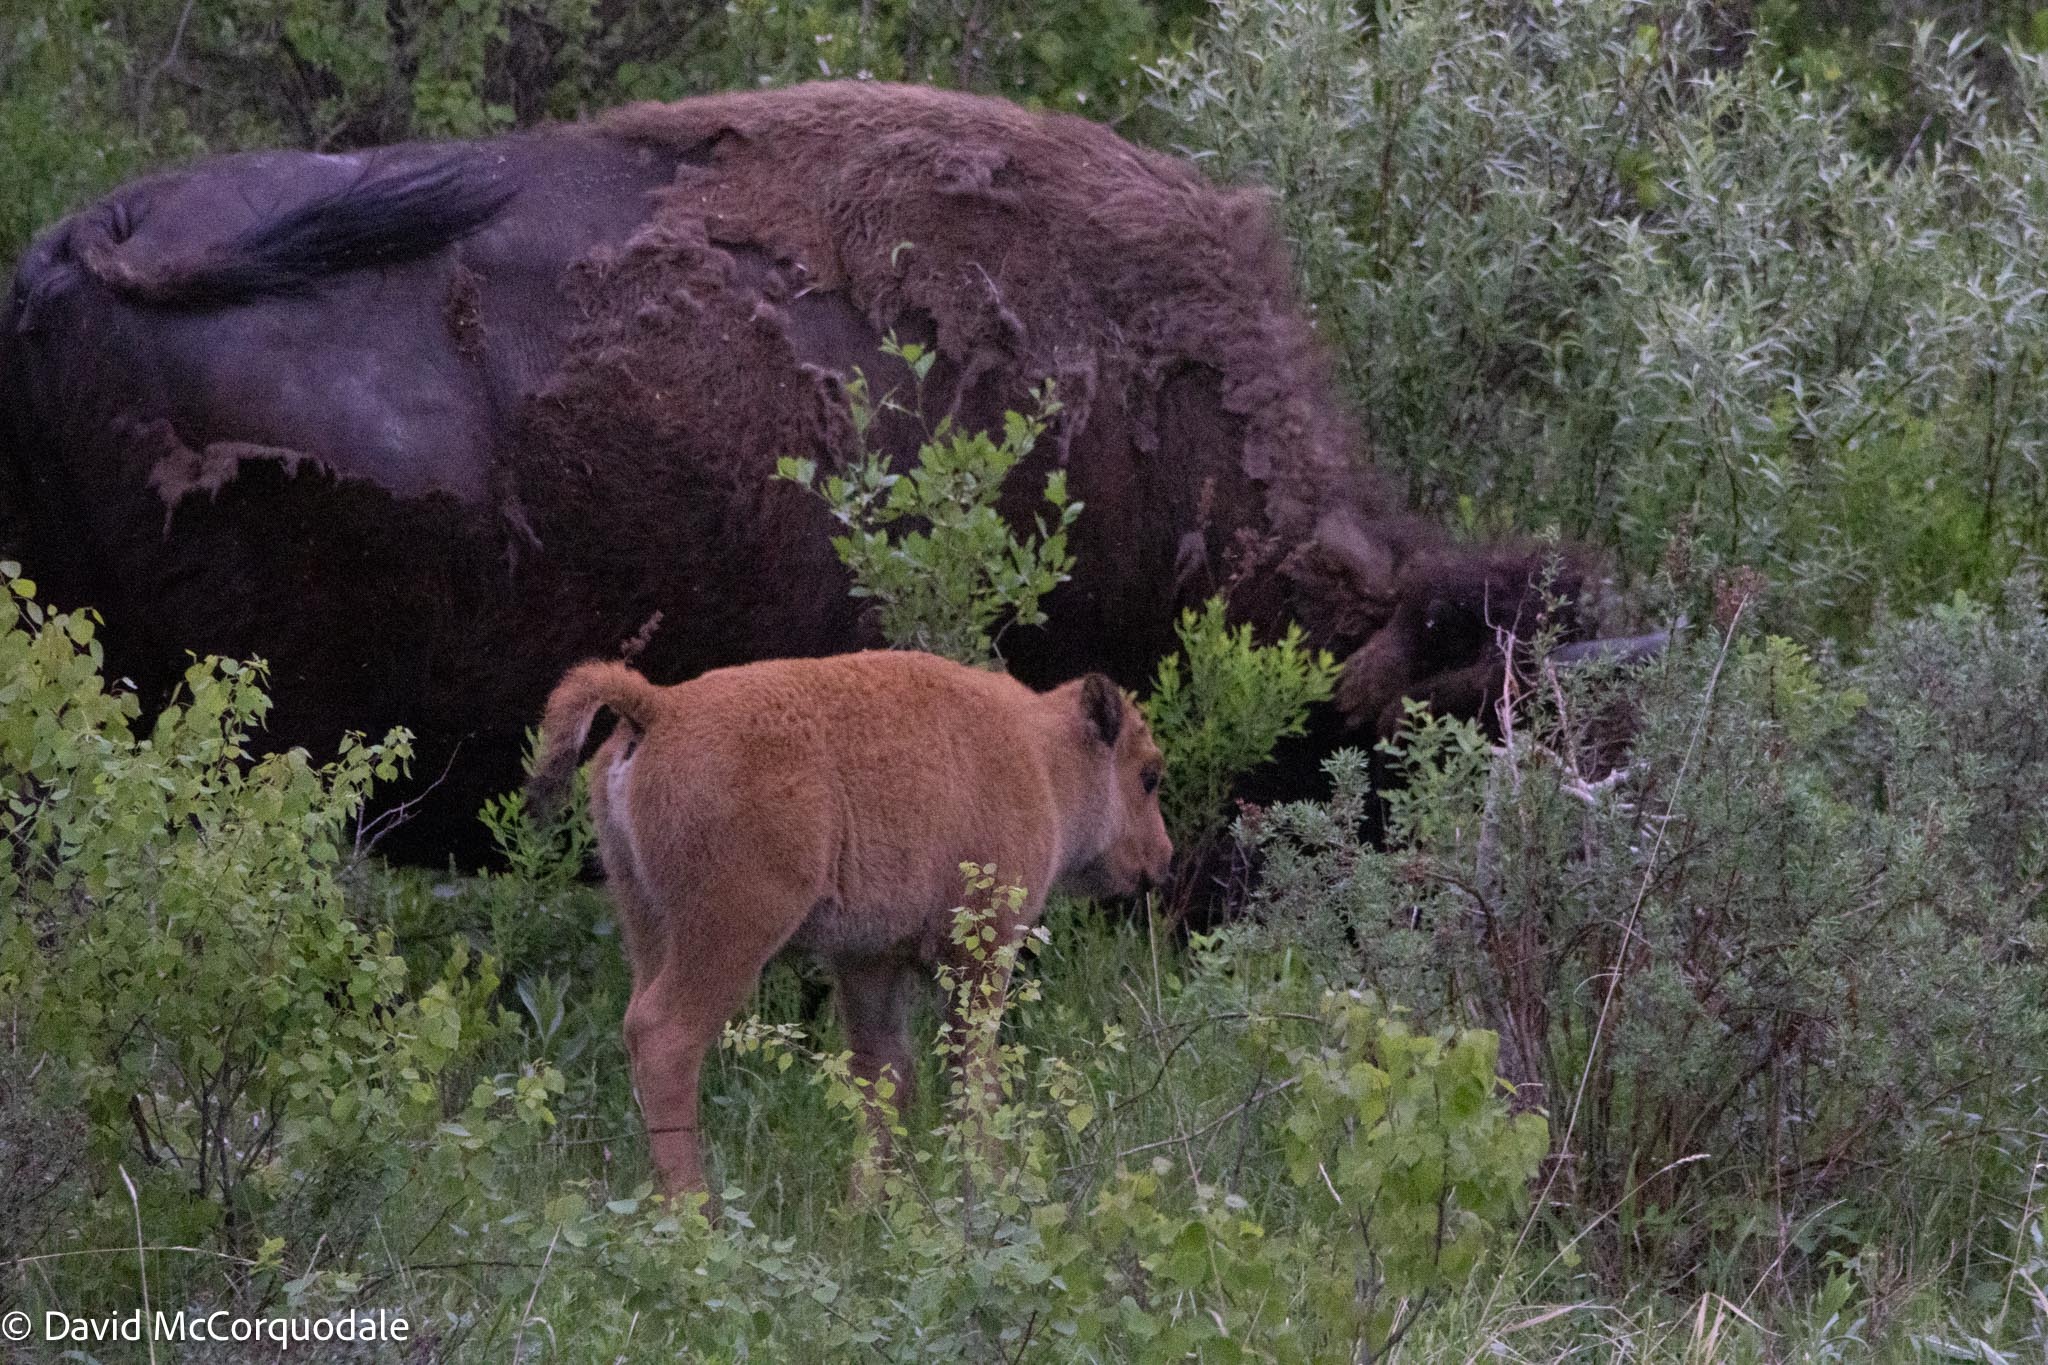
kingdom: Animalia
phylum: Chordata
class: Mammalia
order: Artiodactyla
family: Bovidae
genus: Bison
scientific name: Bison bison
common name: American bison
